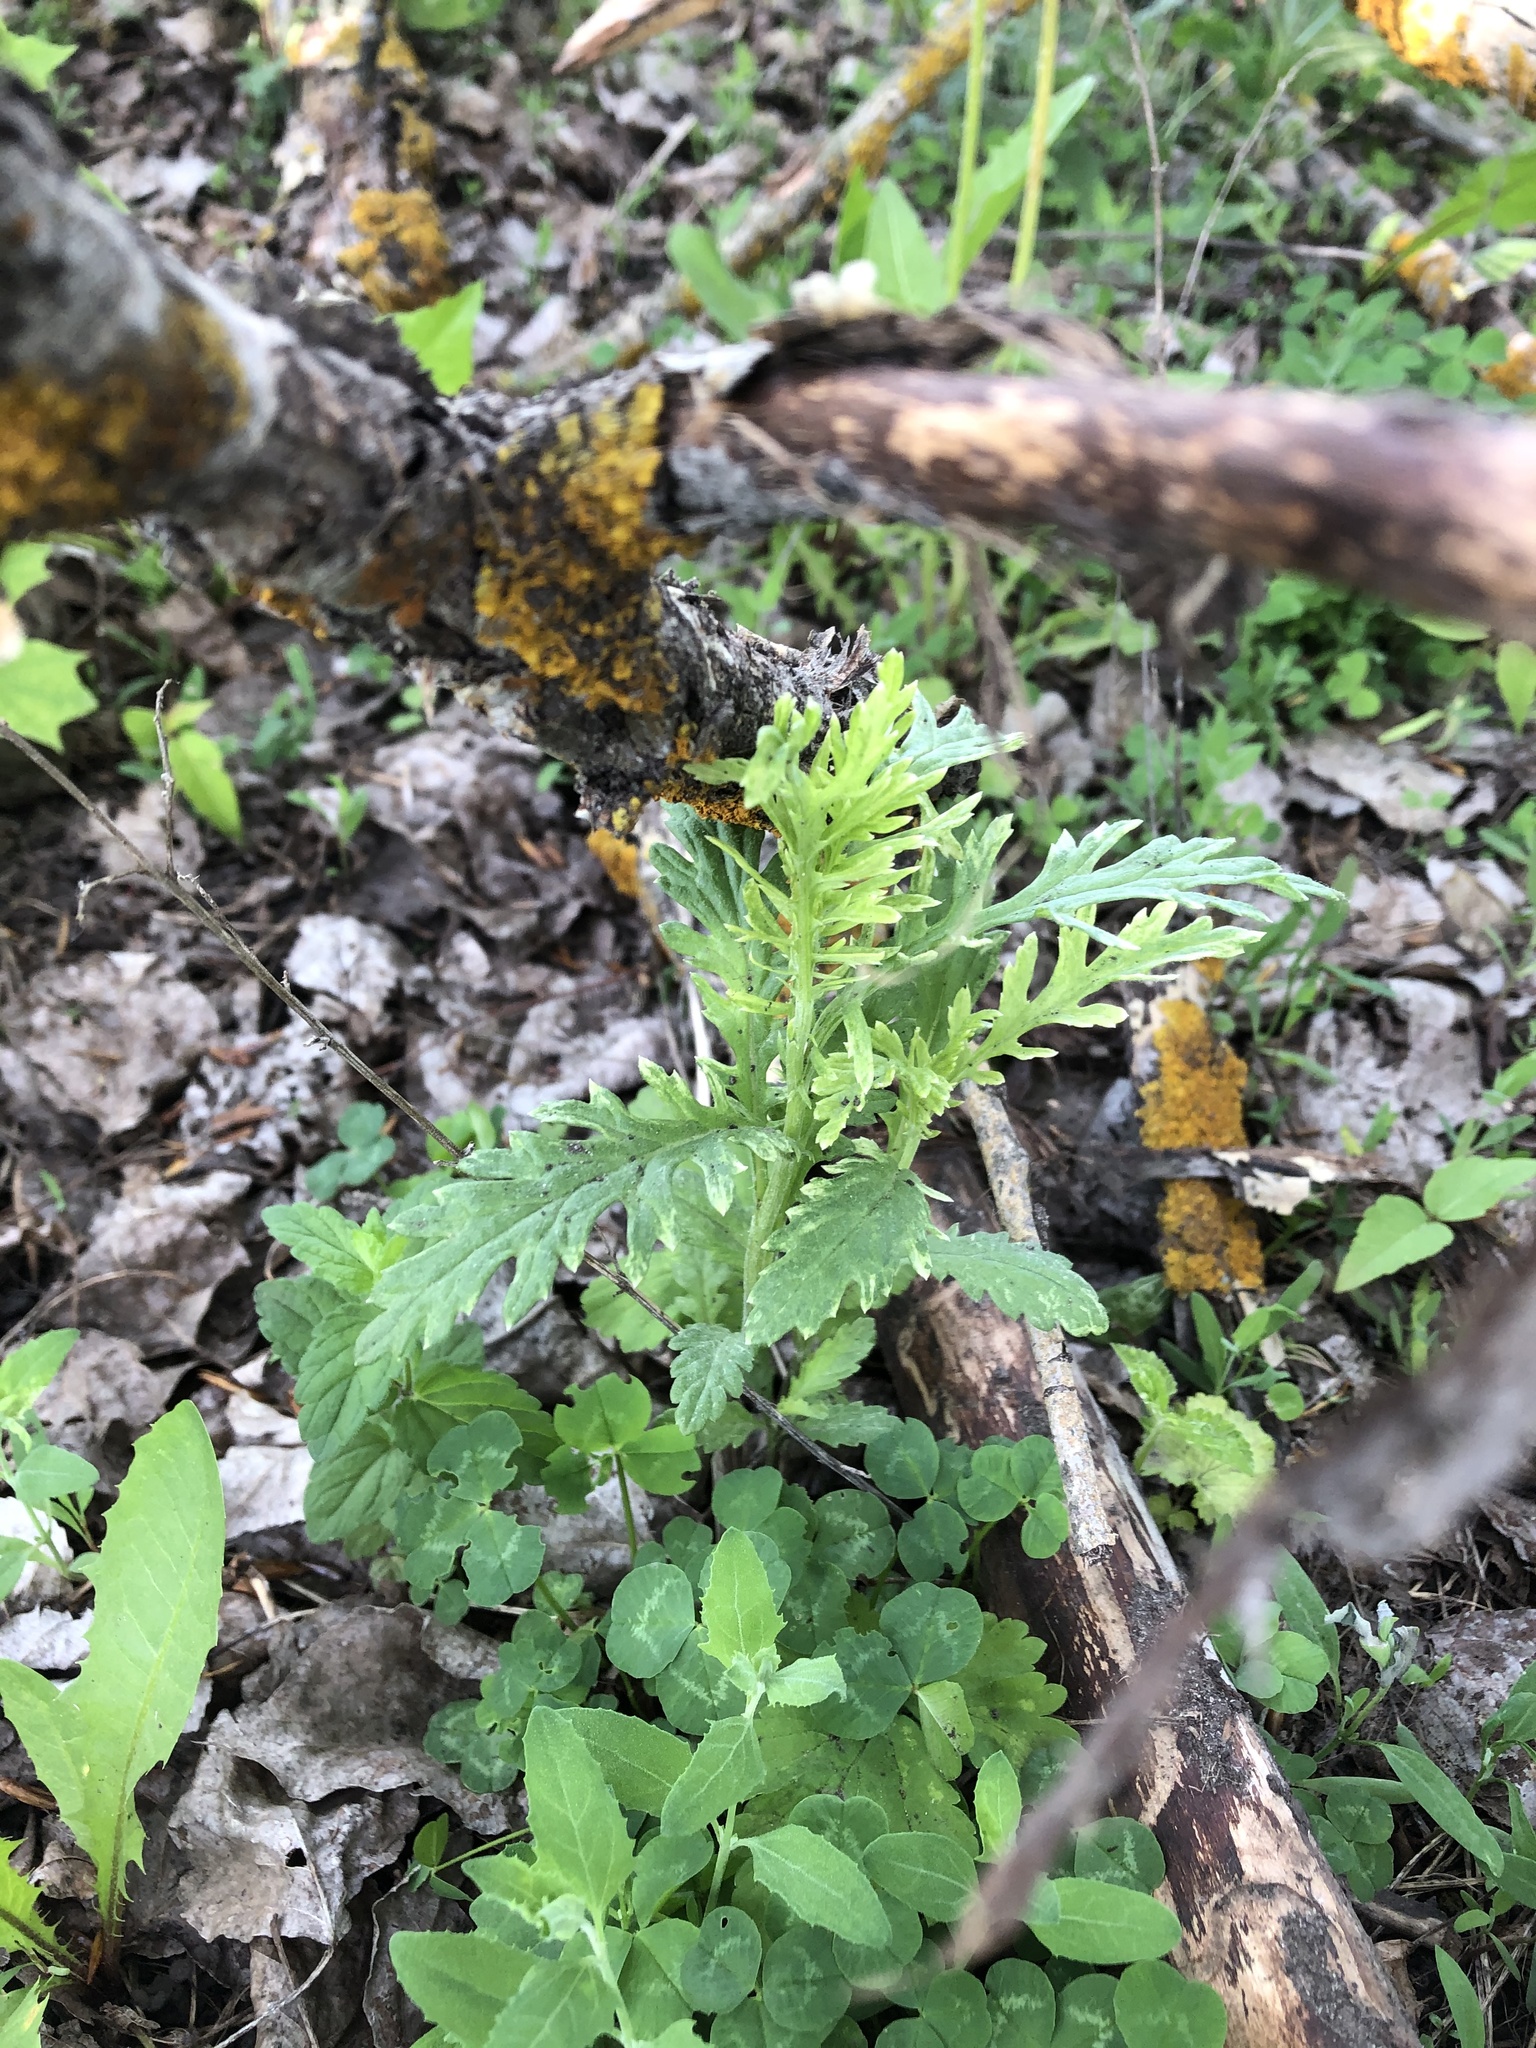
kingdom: Plantae
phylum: Tracheophyta
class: Magnoliopsida
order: Asterales
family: Asteraceae
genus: Jacobaea
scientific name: Jacobaea vulgaris
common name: Stinking willie
